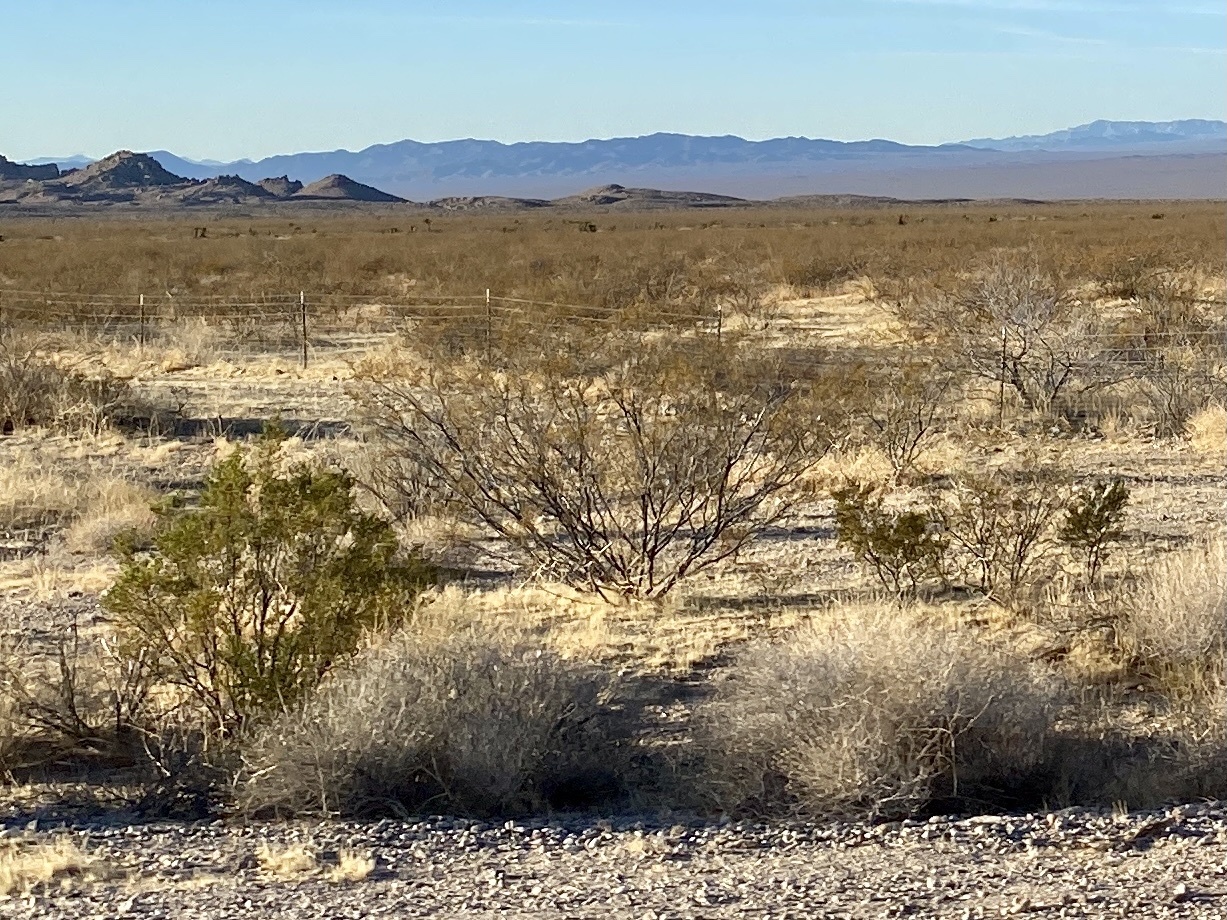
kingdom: Plantae
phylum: Tracheophyta
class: Magnoliopsida
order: Zygophyllales
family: Zygophyllaceae
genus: Larrea
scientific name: Larrea tridentata
